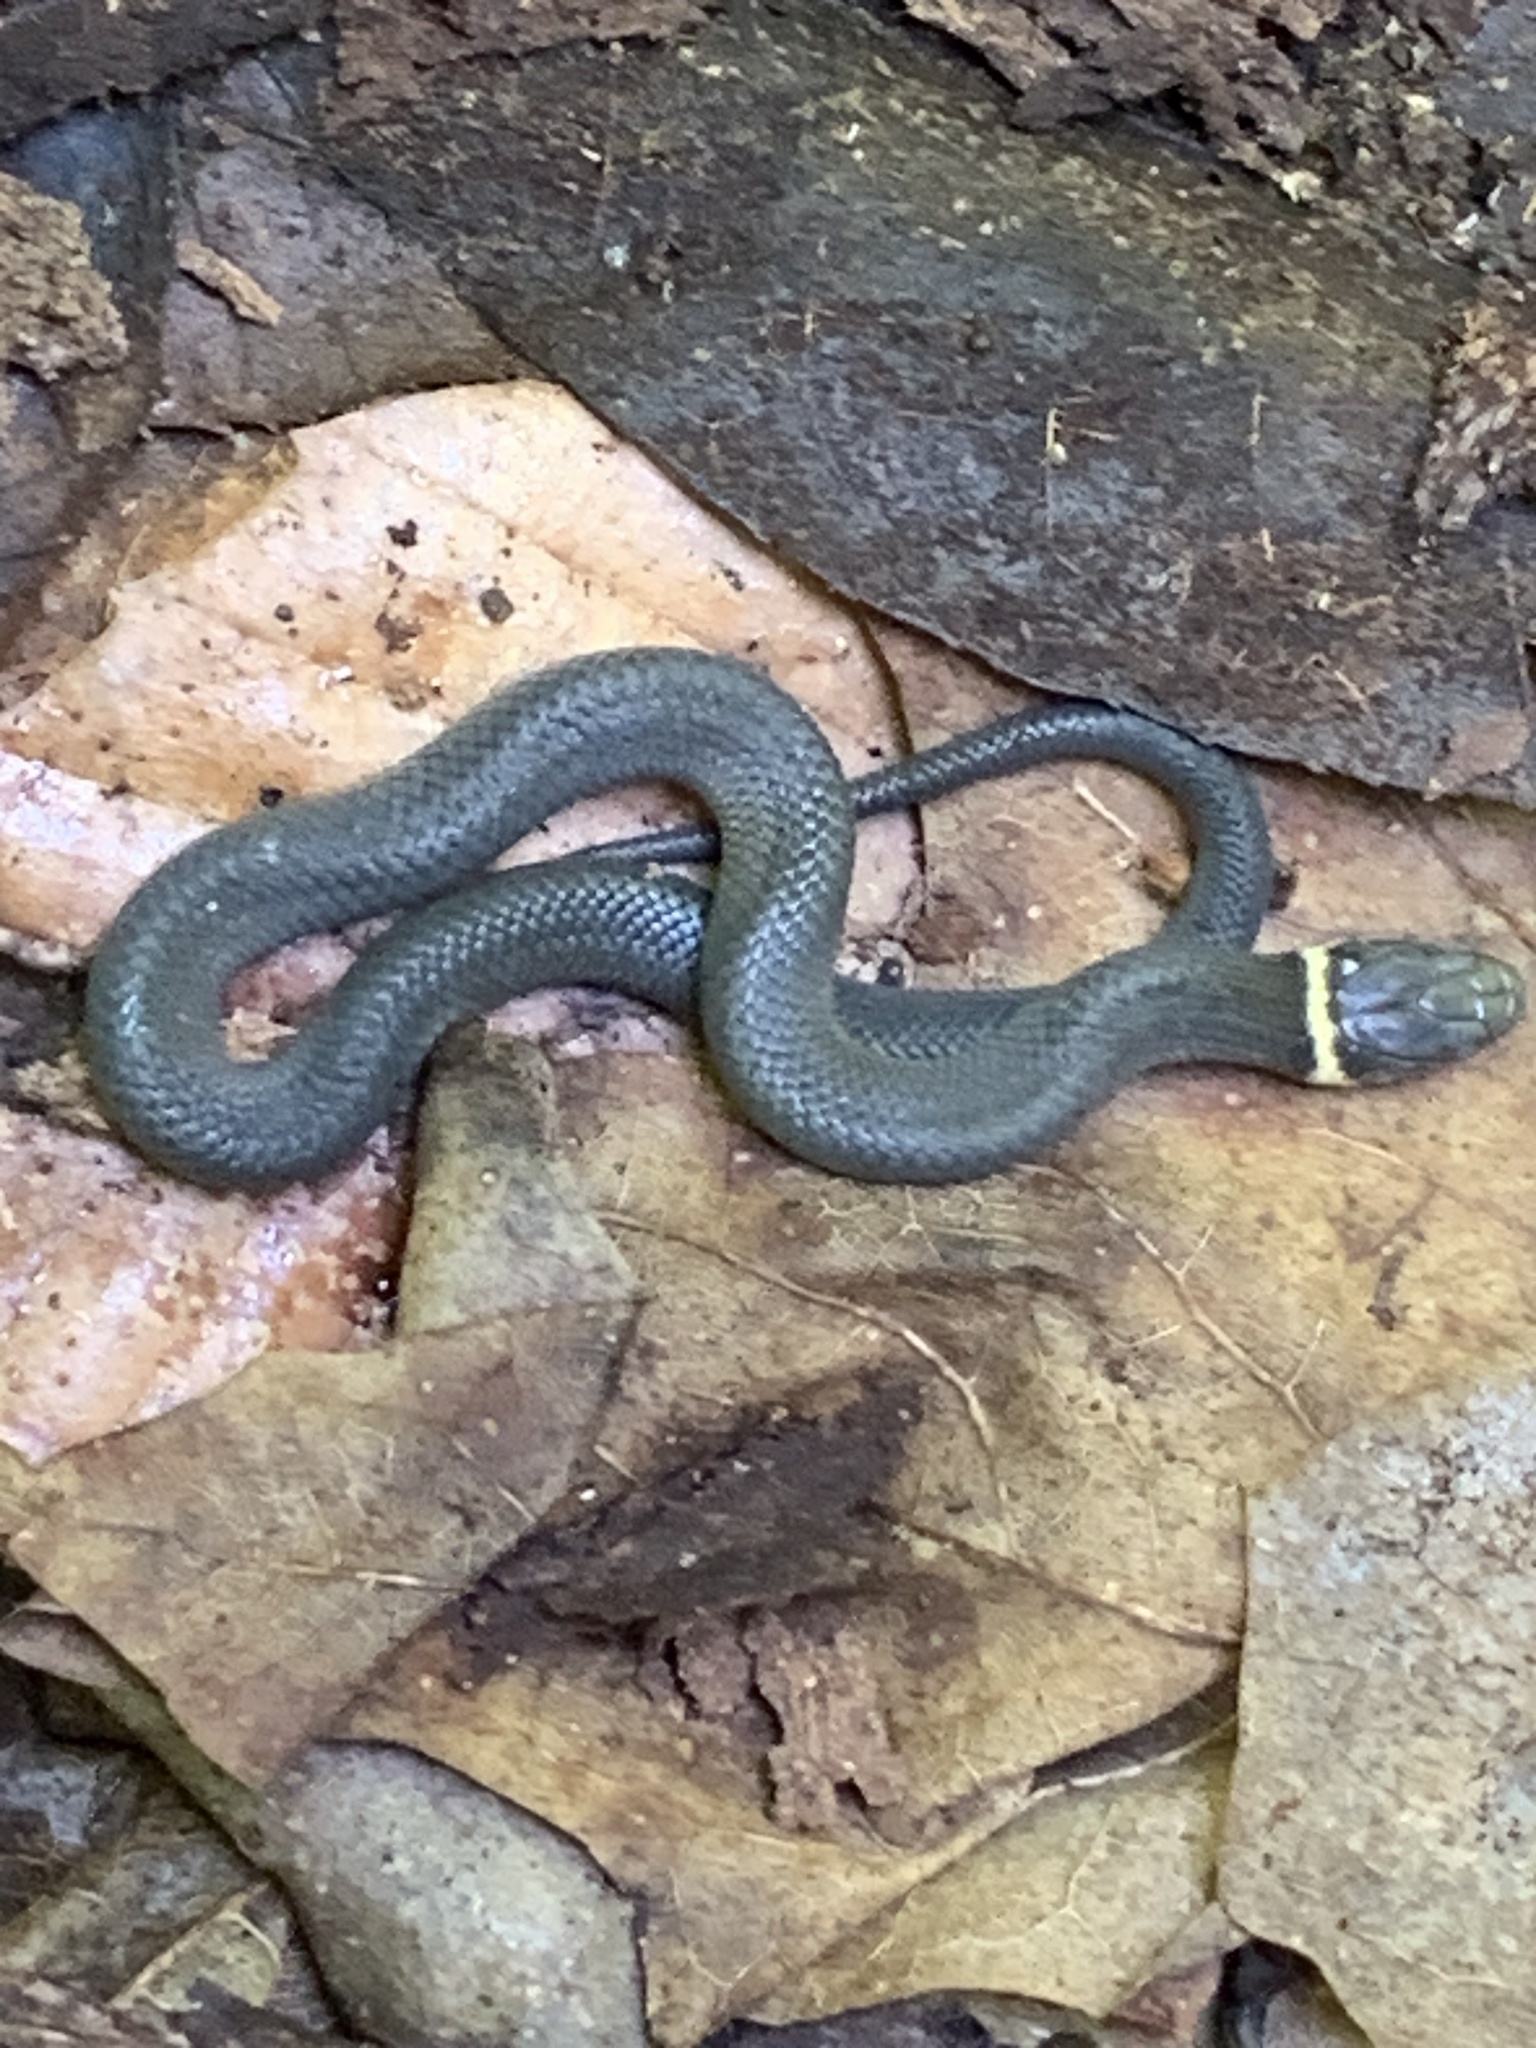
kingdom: Animalia
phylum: Chordata
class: Squamata
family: Colubridae
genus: Diadophis
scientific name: Diadophis punctatus
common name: Ringneck snake
